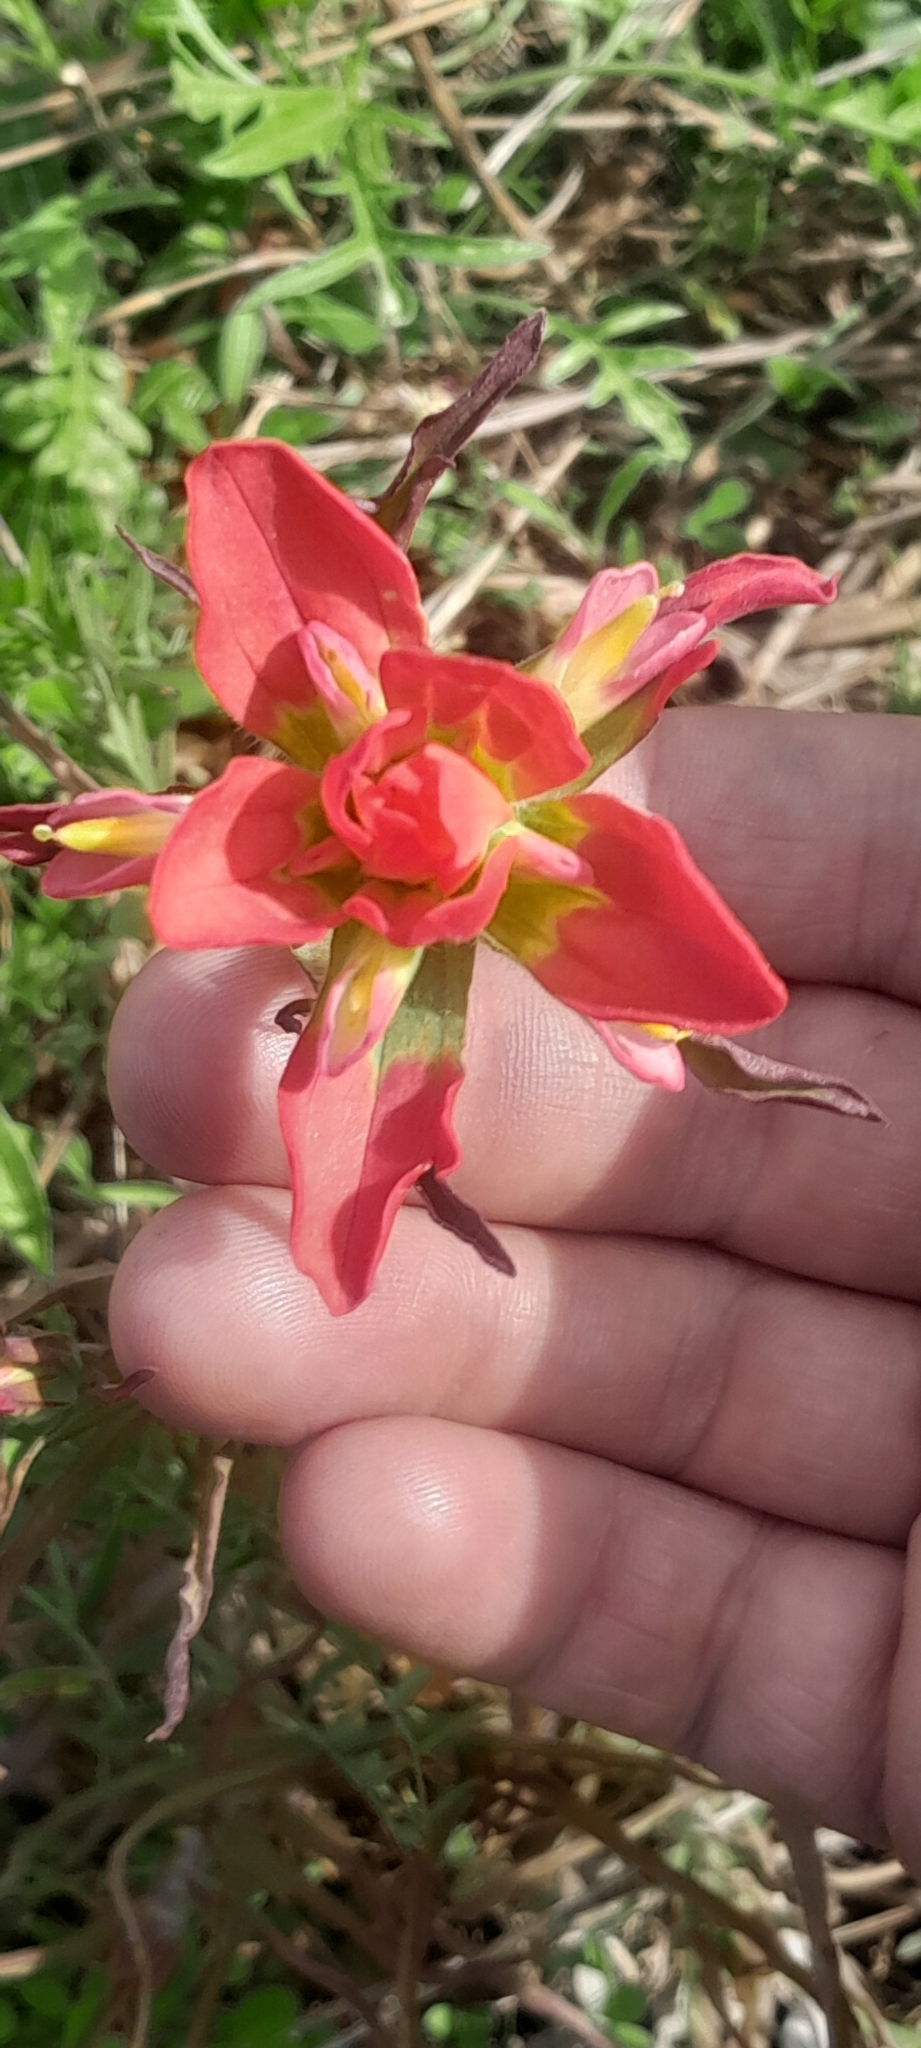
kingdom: Plantae
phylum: Tracheophyta
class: Magnoliopsida
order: Lamiales
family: Orobanchaceae
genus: Castilleja
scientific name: Castilleja indivisa
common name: Texas paintbrush
